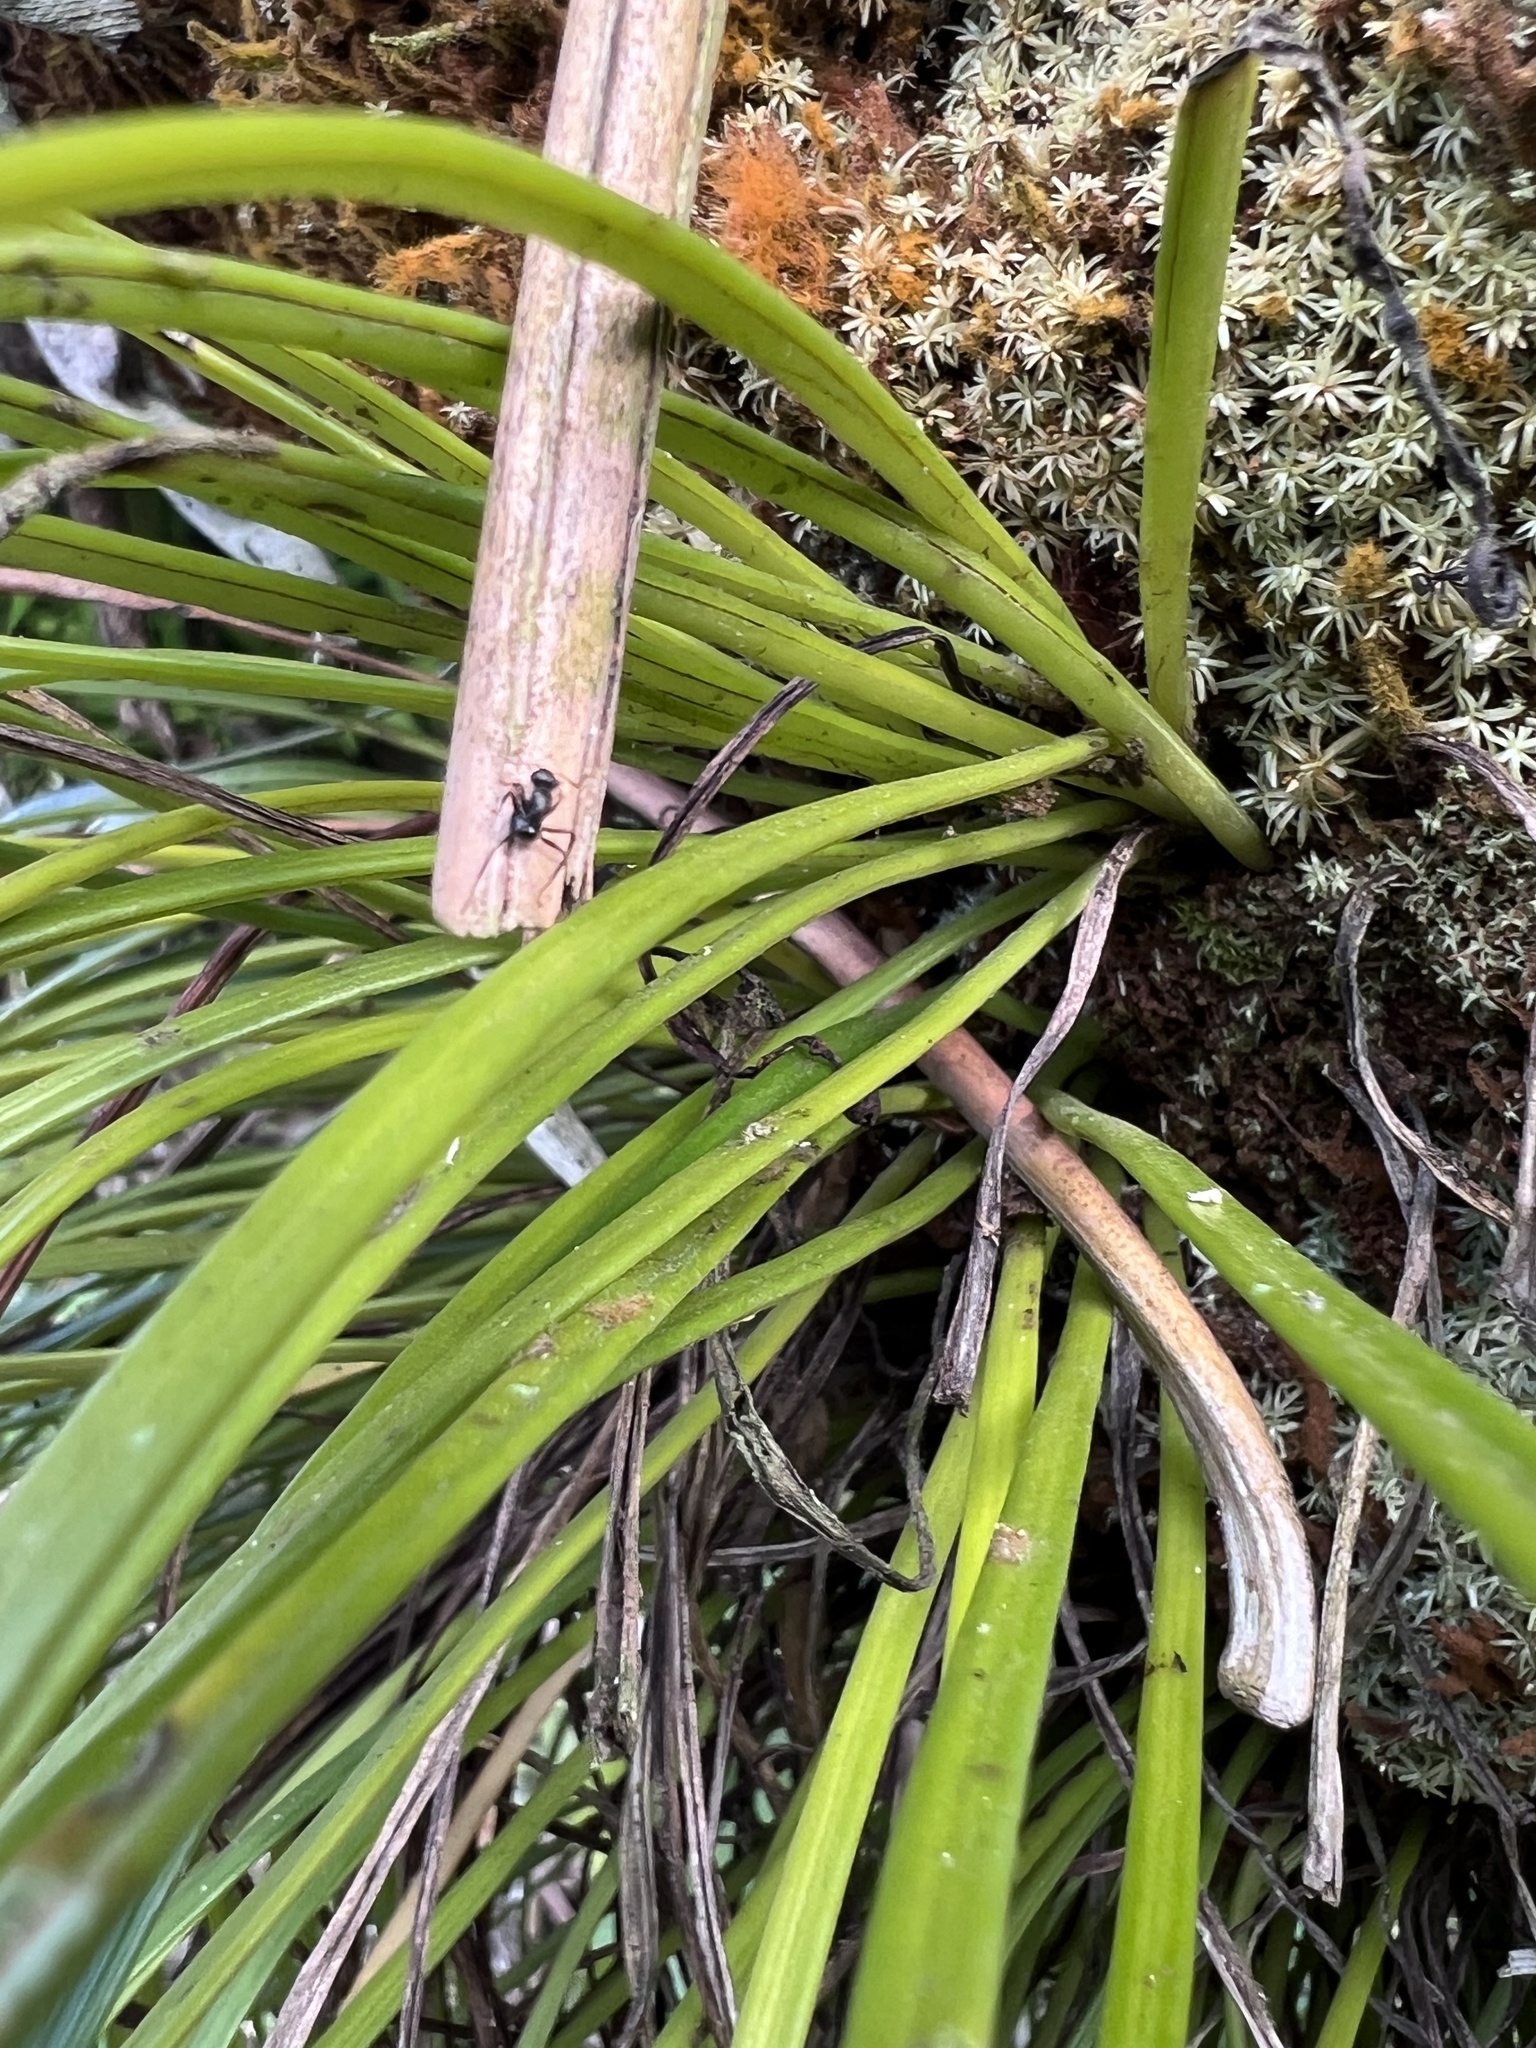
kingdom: Plantae
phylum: Tracheophyta
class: Polypodiopsida
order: Polypodiales
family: Pteridaceae
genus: Vittaria
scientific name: Vittaria lineata
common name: Shoestring fern
